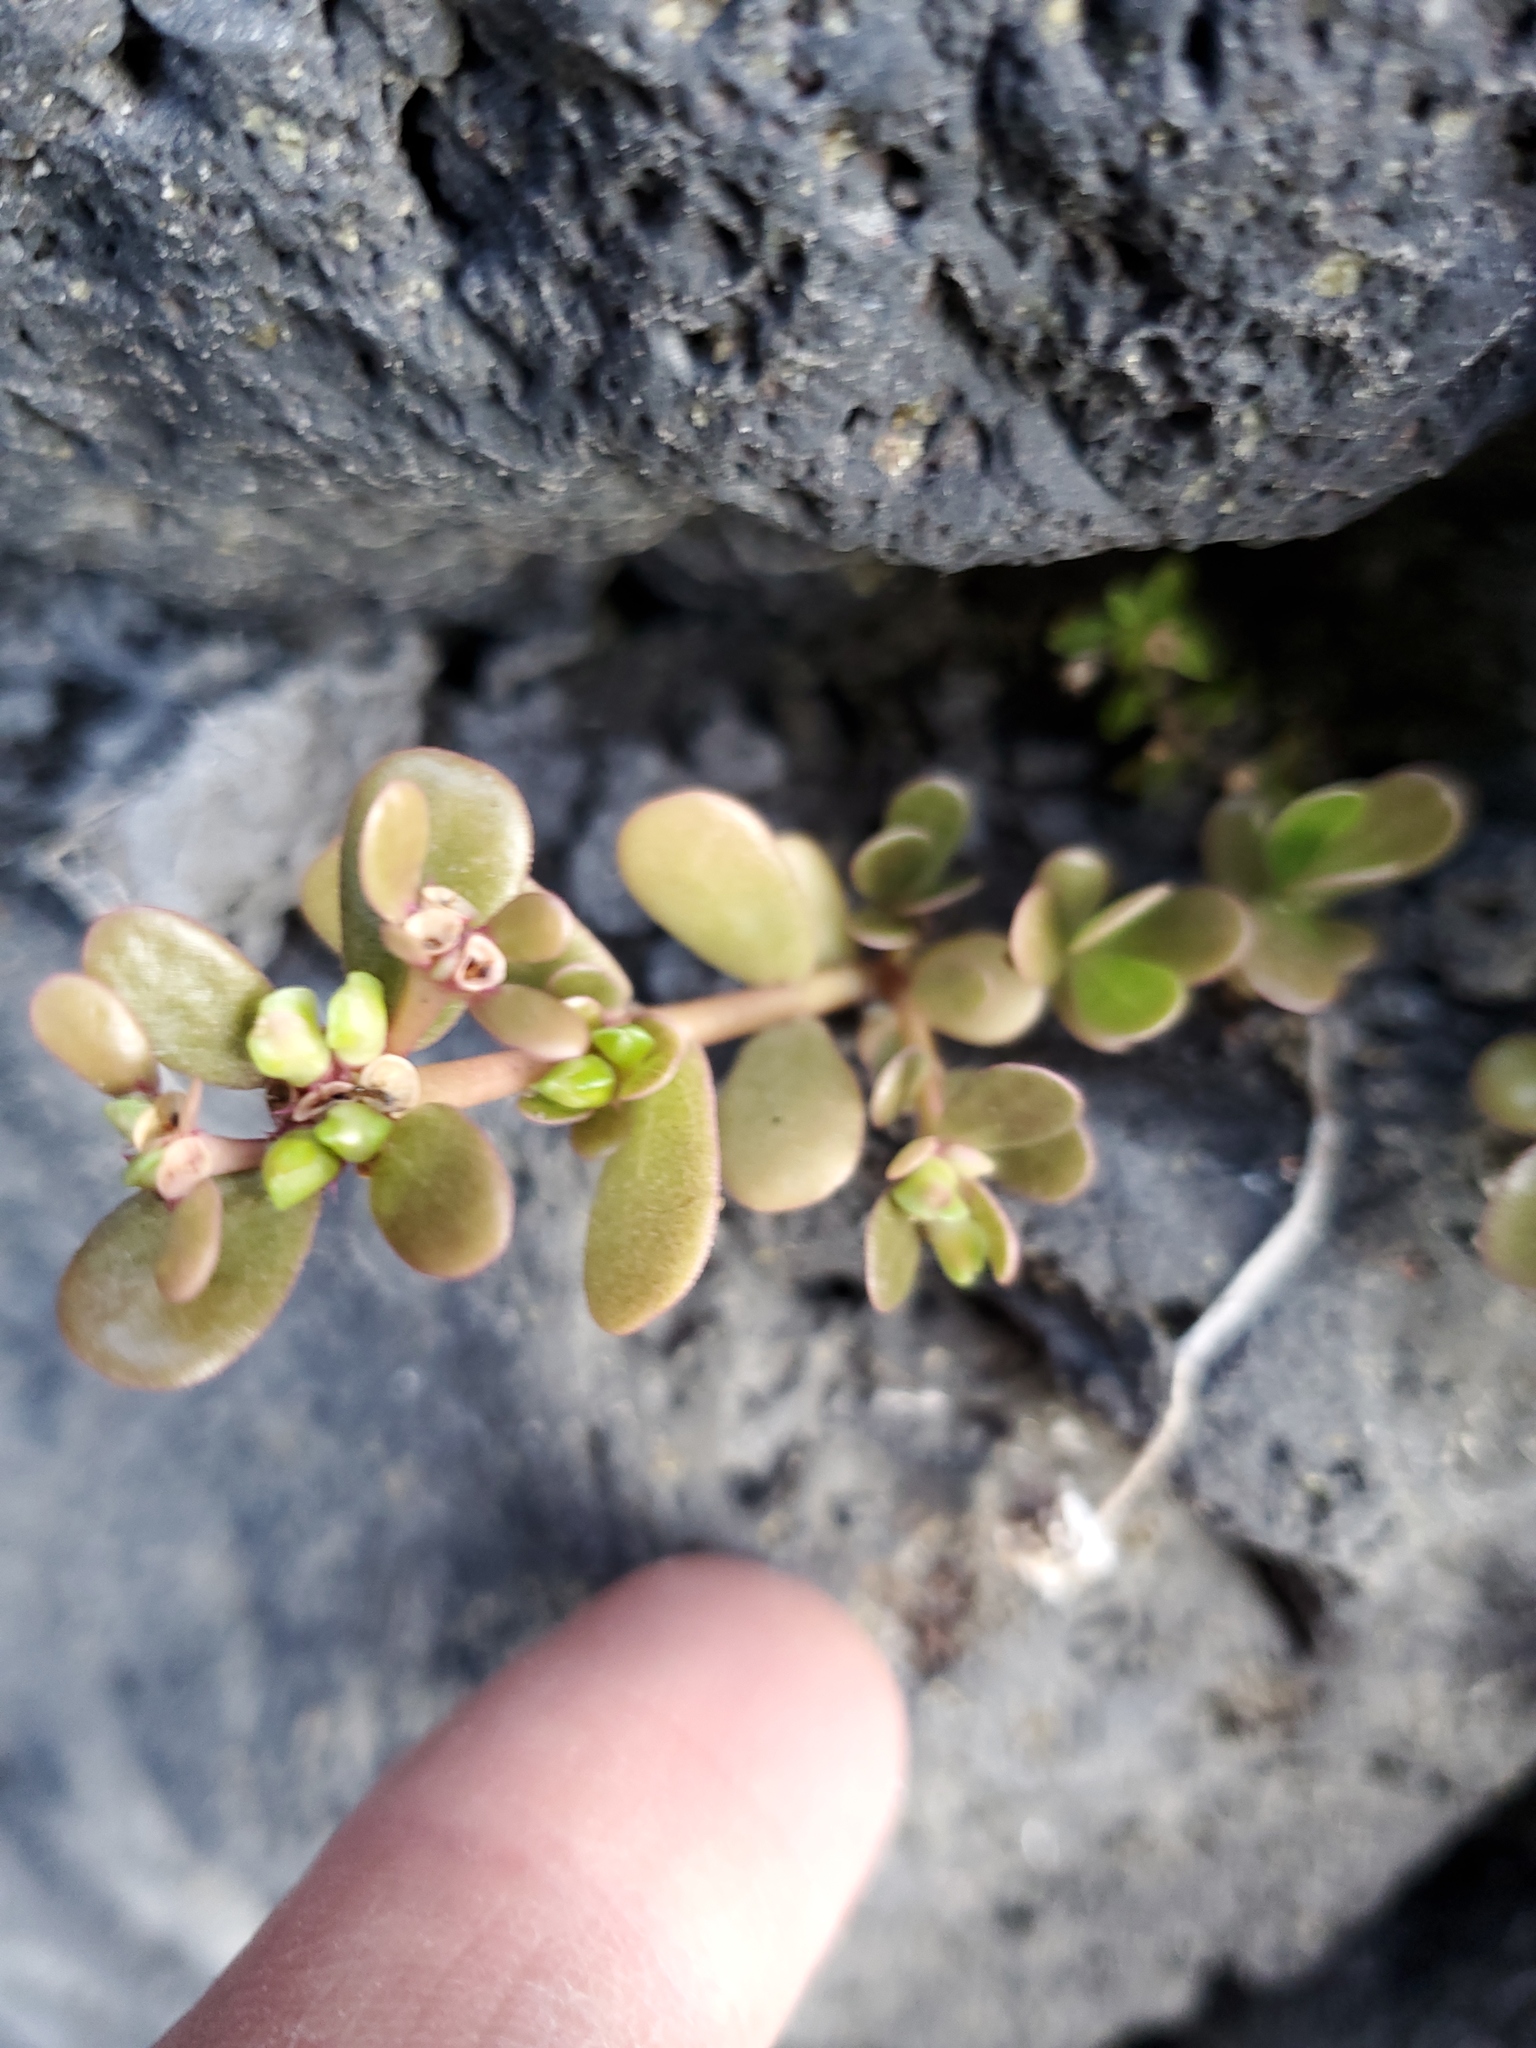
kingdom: Plantae
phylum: Tracheophyta
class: Magnoliopsida
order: Caryophyllales
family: Portulacaceae
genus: Portulaca
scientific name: Portulaca oleracea
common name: Common purslane
